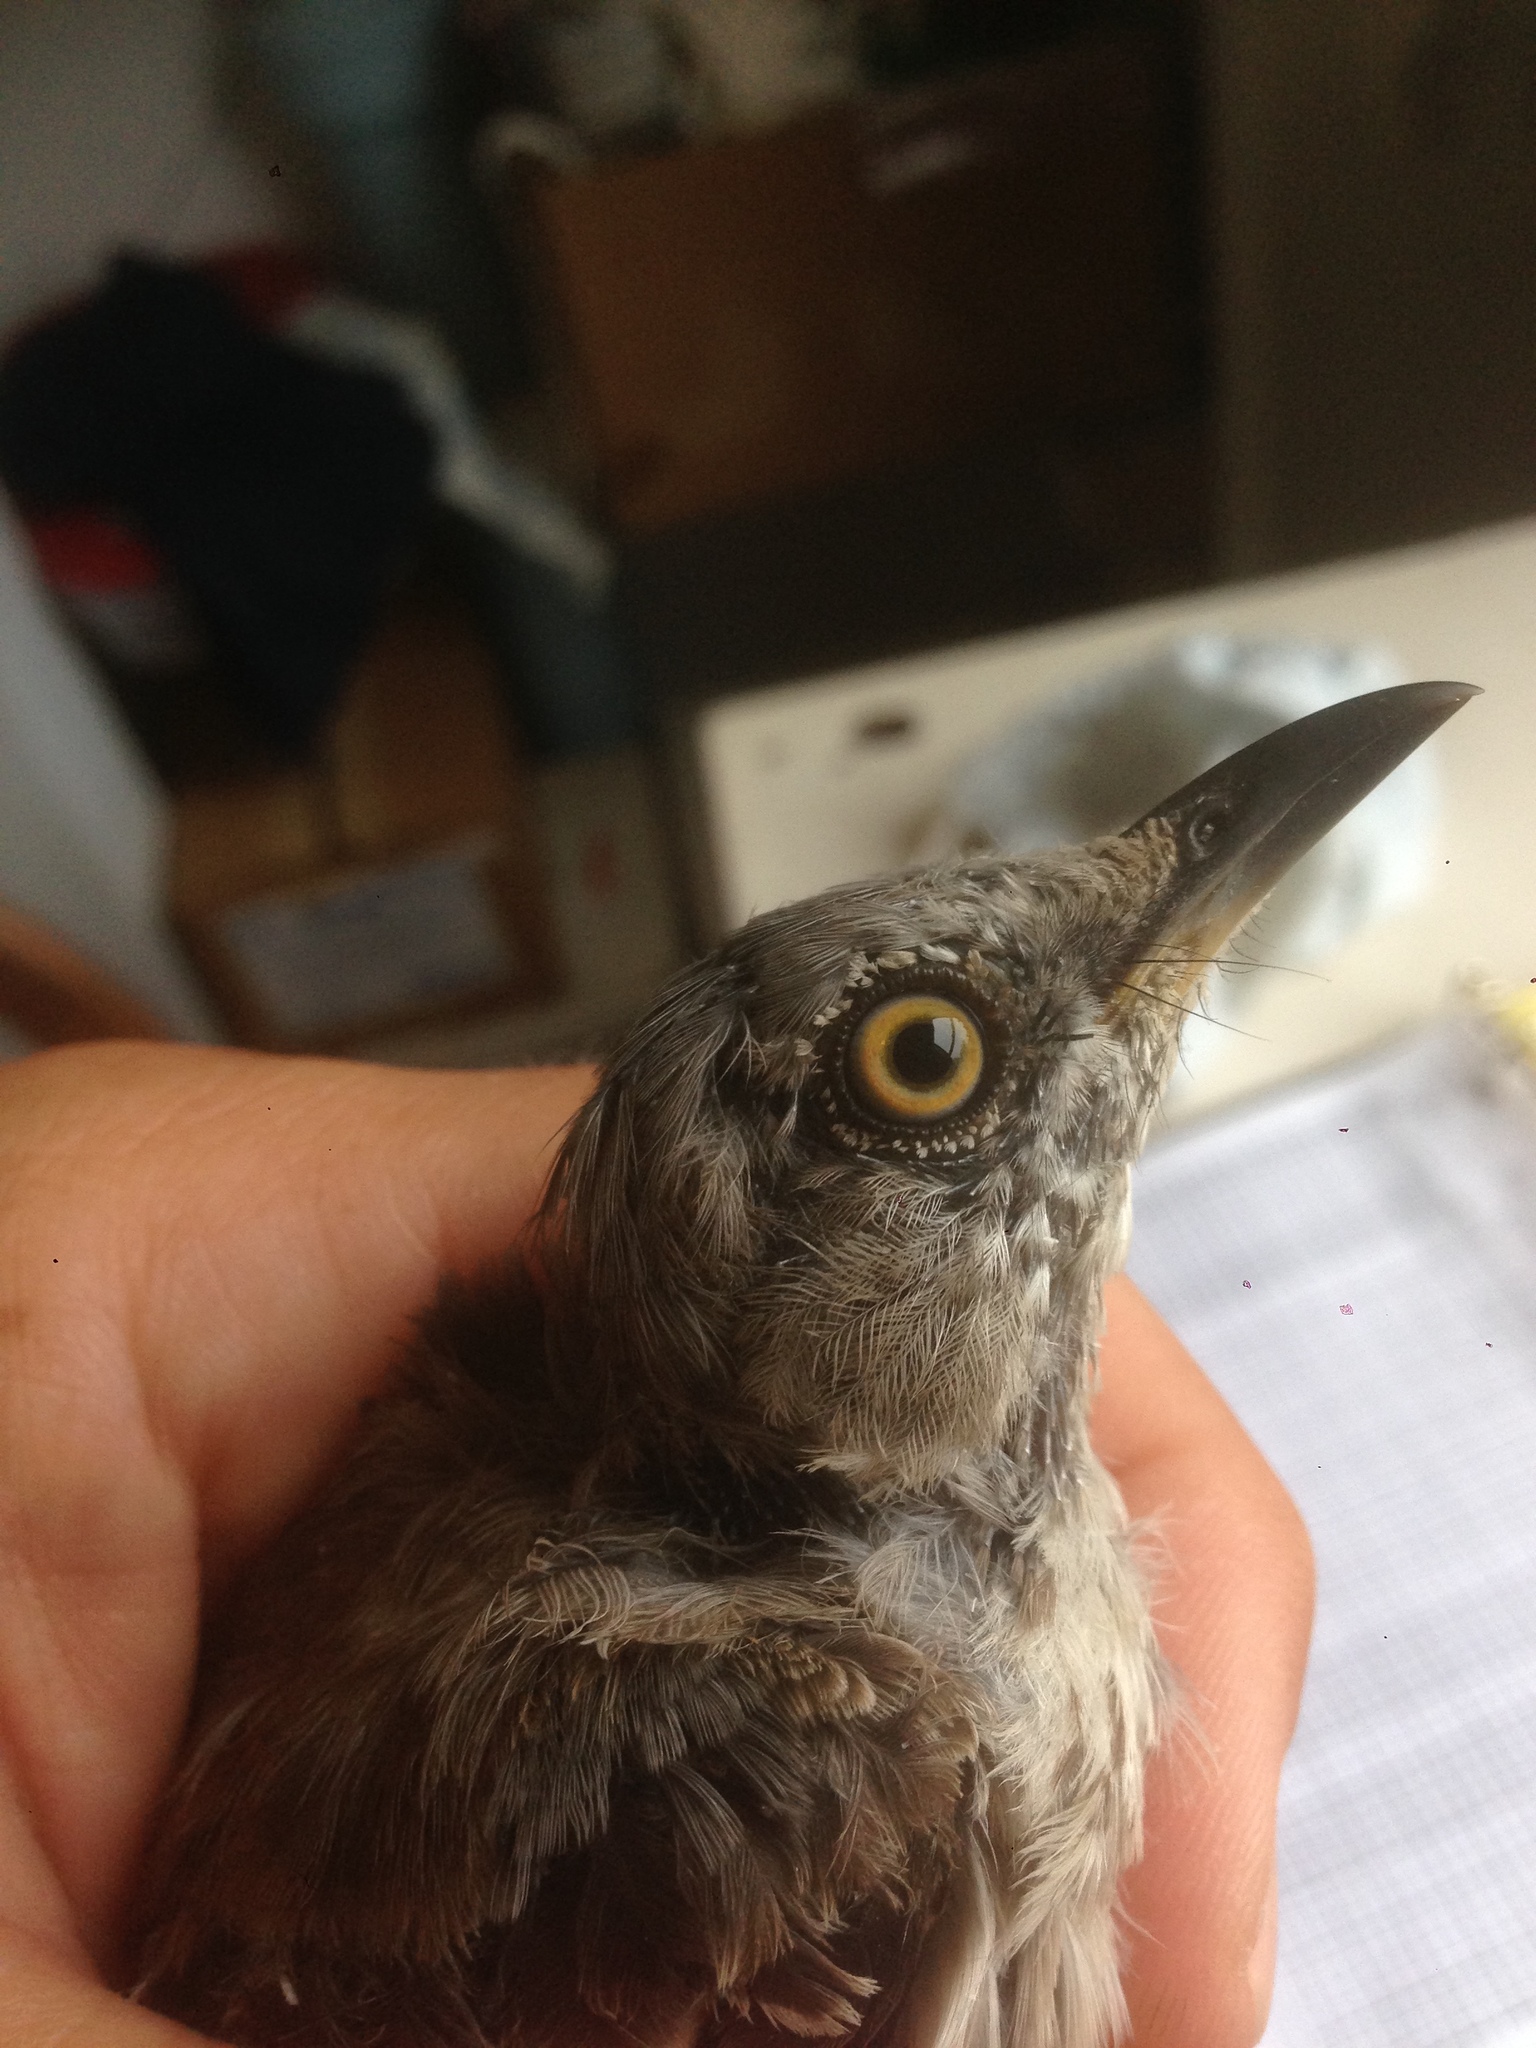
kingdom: Animalia
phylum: Chordata
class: Aves
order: Passeriformes
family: Mimidae
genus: Mimus
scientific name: Mimus polyglottos
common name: Northern mockingbird
